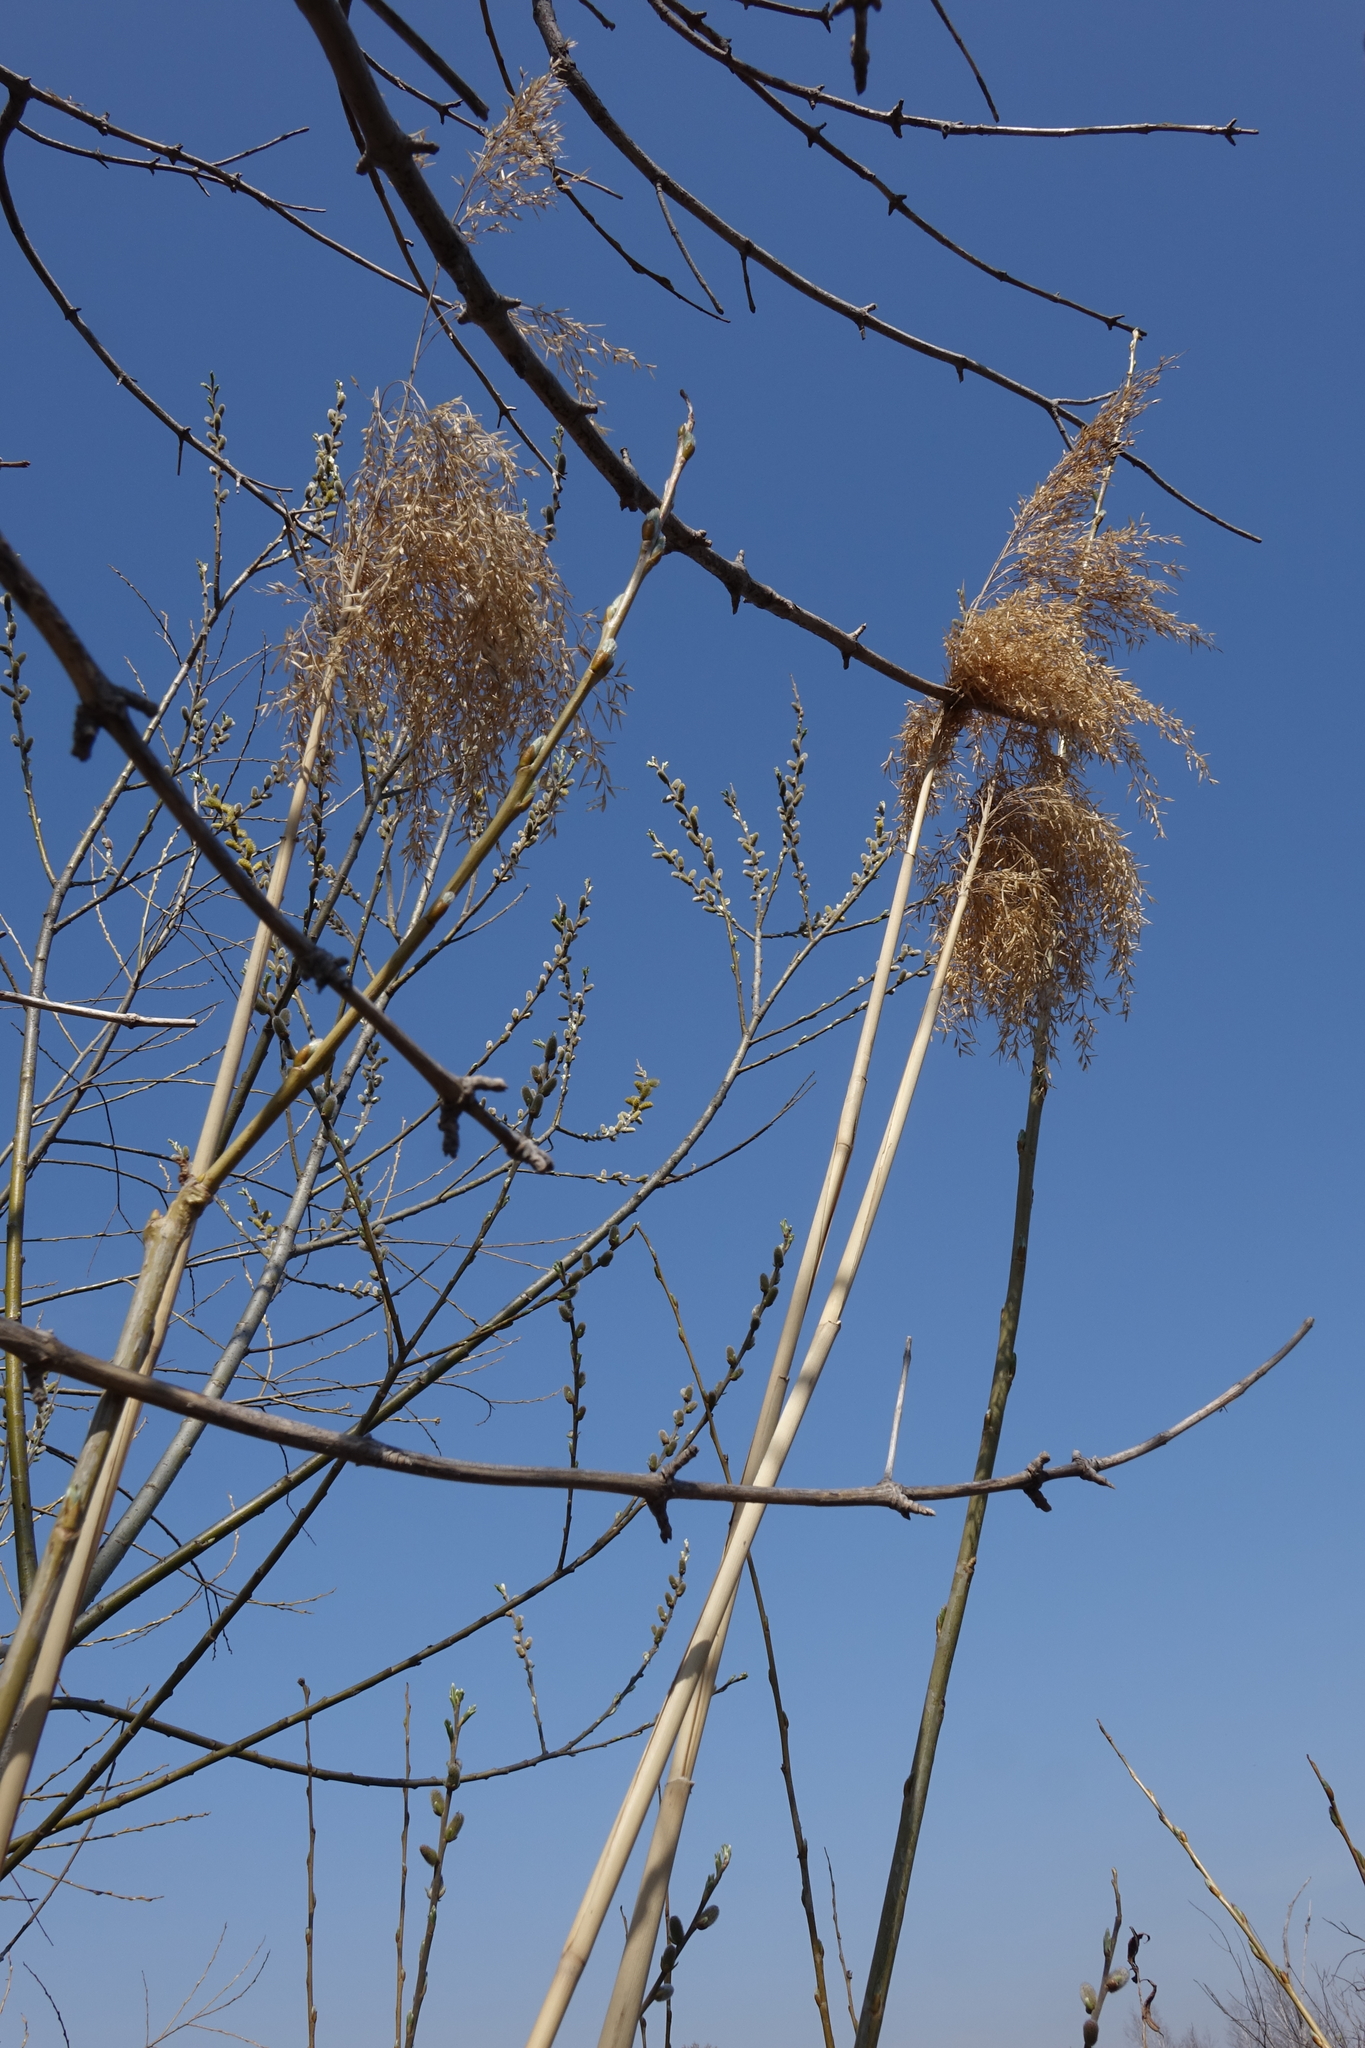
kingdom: Plantae
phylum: Tracheophyta
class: Liliopsida
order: Poales
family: Poaceae
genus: Phragmites
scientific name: Phragmites australis
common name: Common reed
